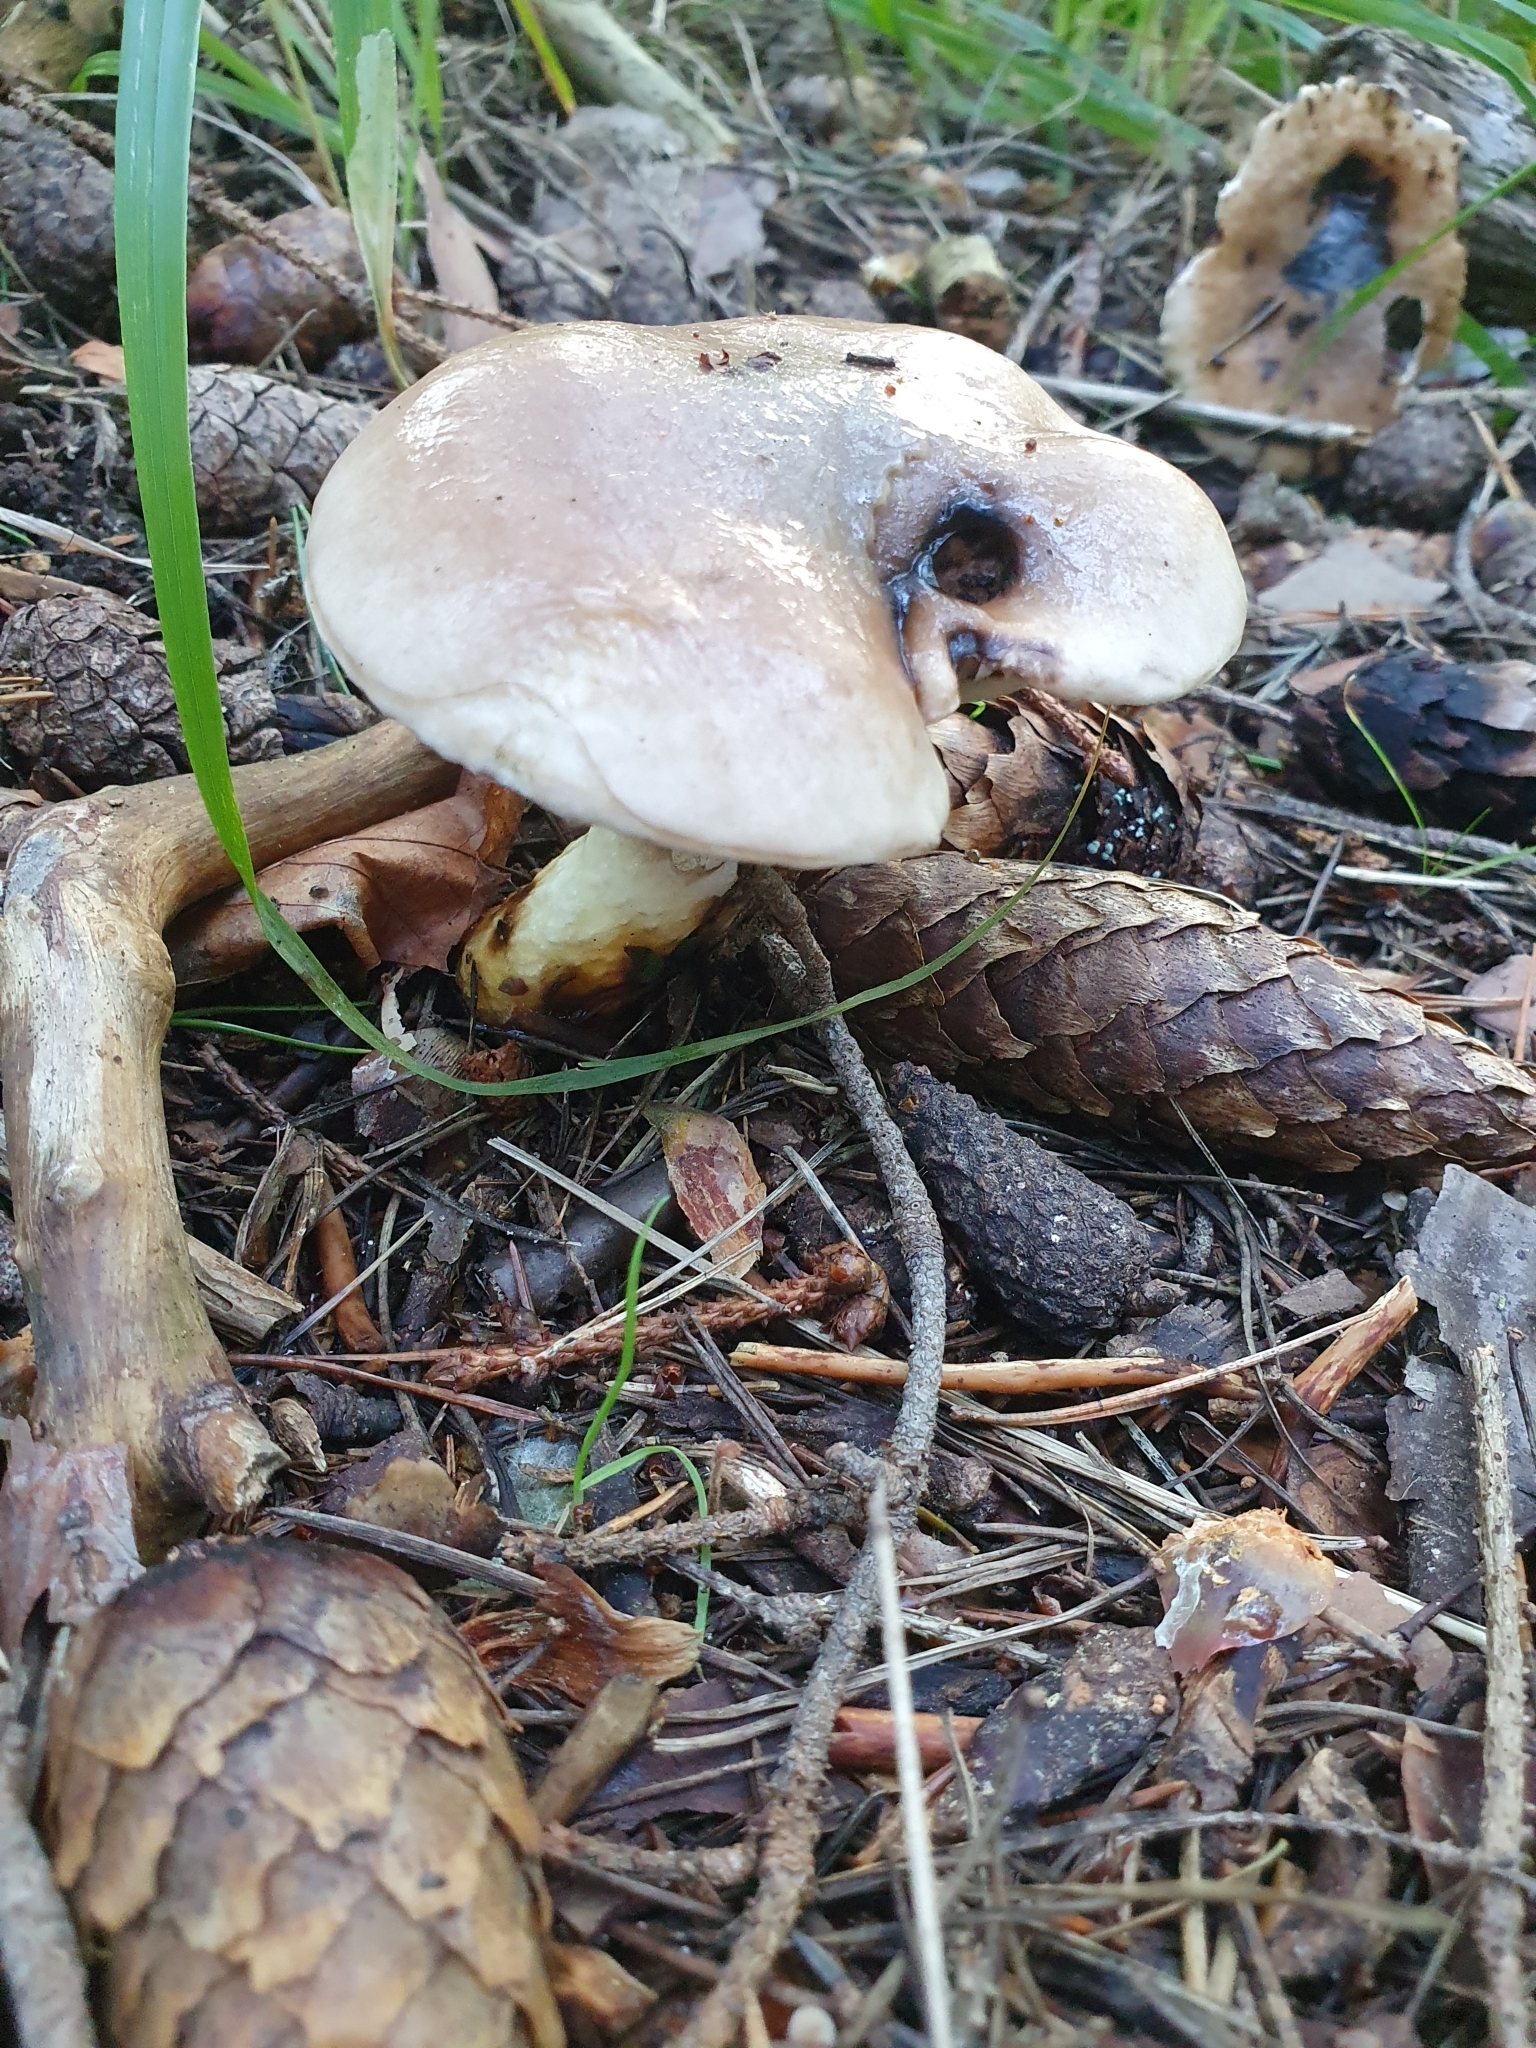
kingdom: Fungi
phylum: Basidiomycota
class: Agaricomycetes
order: Boletales
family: Gomphidiaceae
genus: Gomphidius
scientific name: Gomphidius glutinosus
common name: Slimy spike
